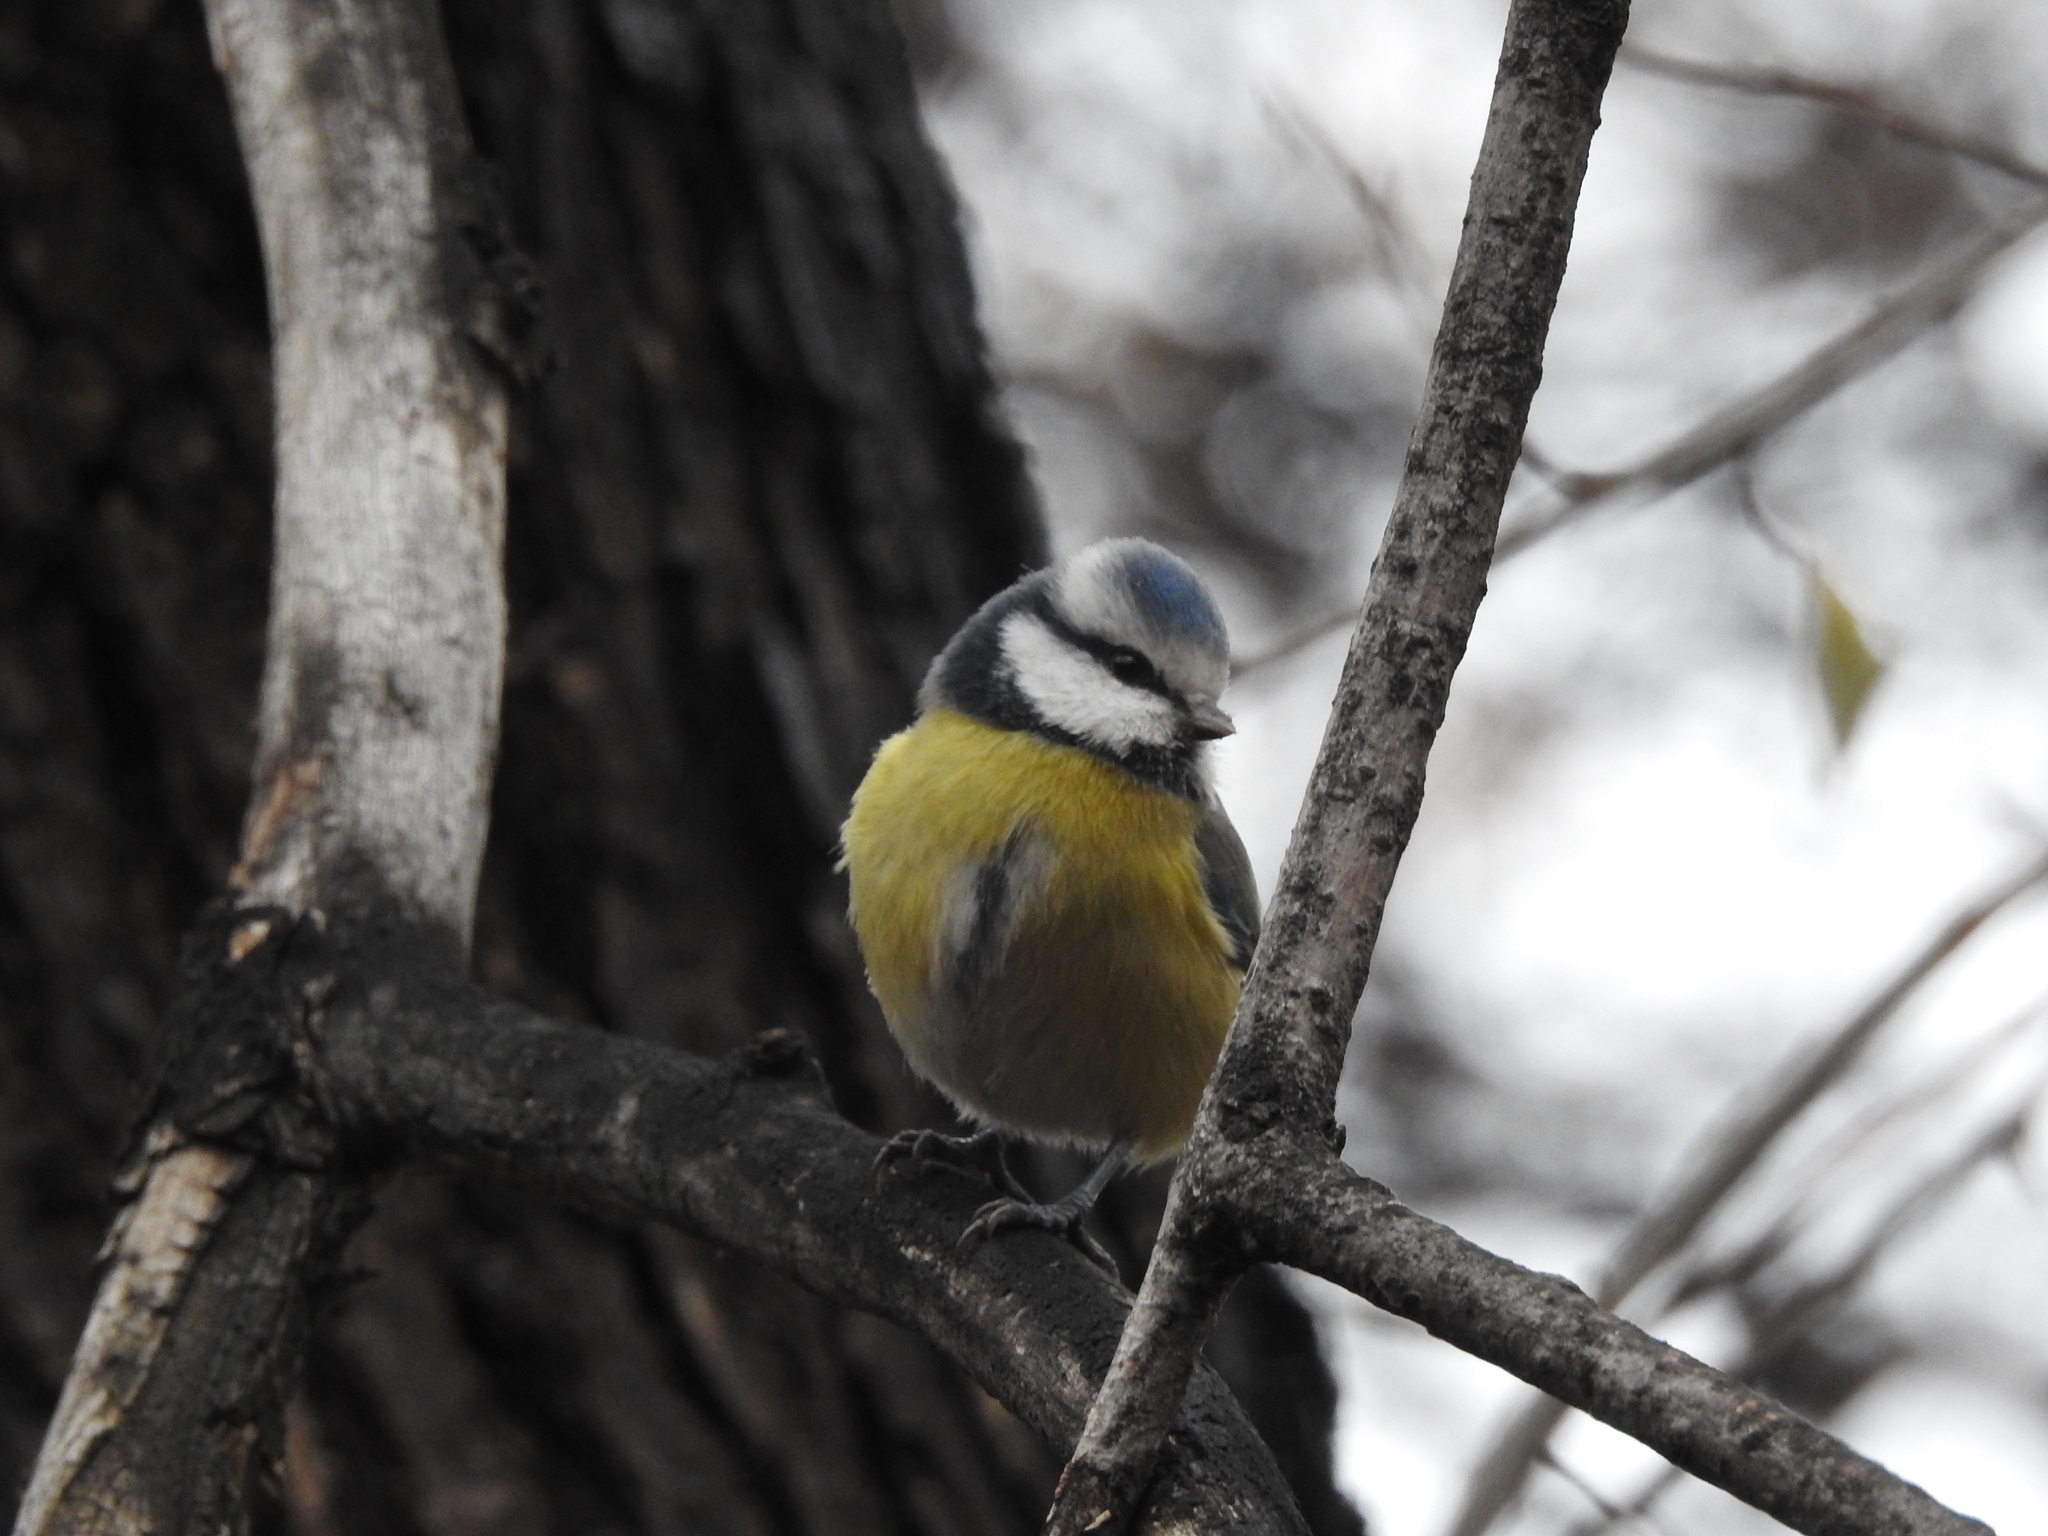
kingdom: Animalia
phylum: Chordata
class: Aves
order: Passeriformes
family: Paridae
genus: Cyanistes
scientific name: Cyanistes caeruleus
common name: Eurasian blue tit
